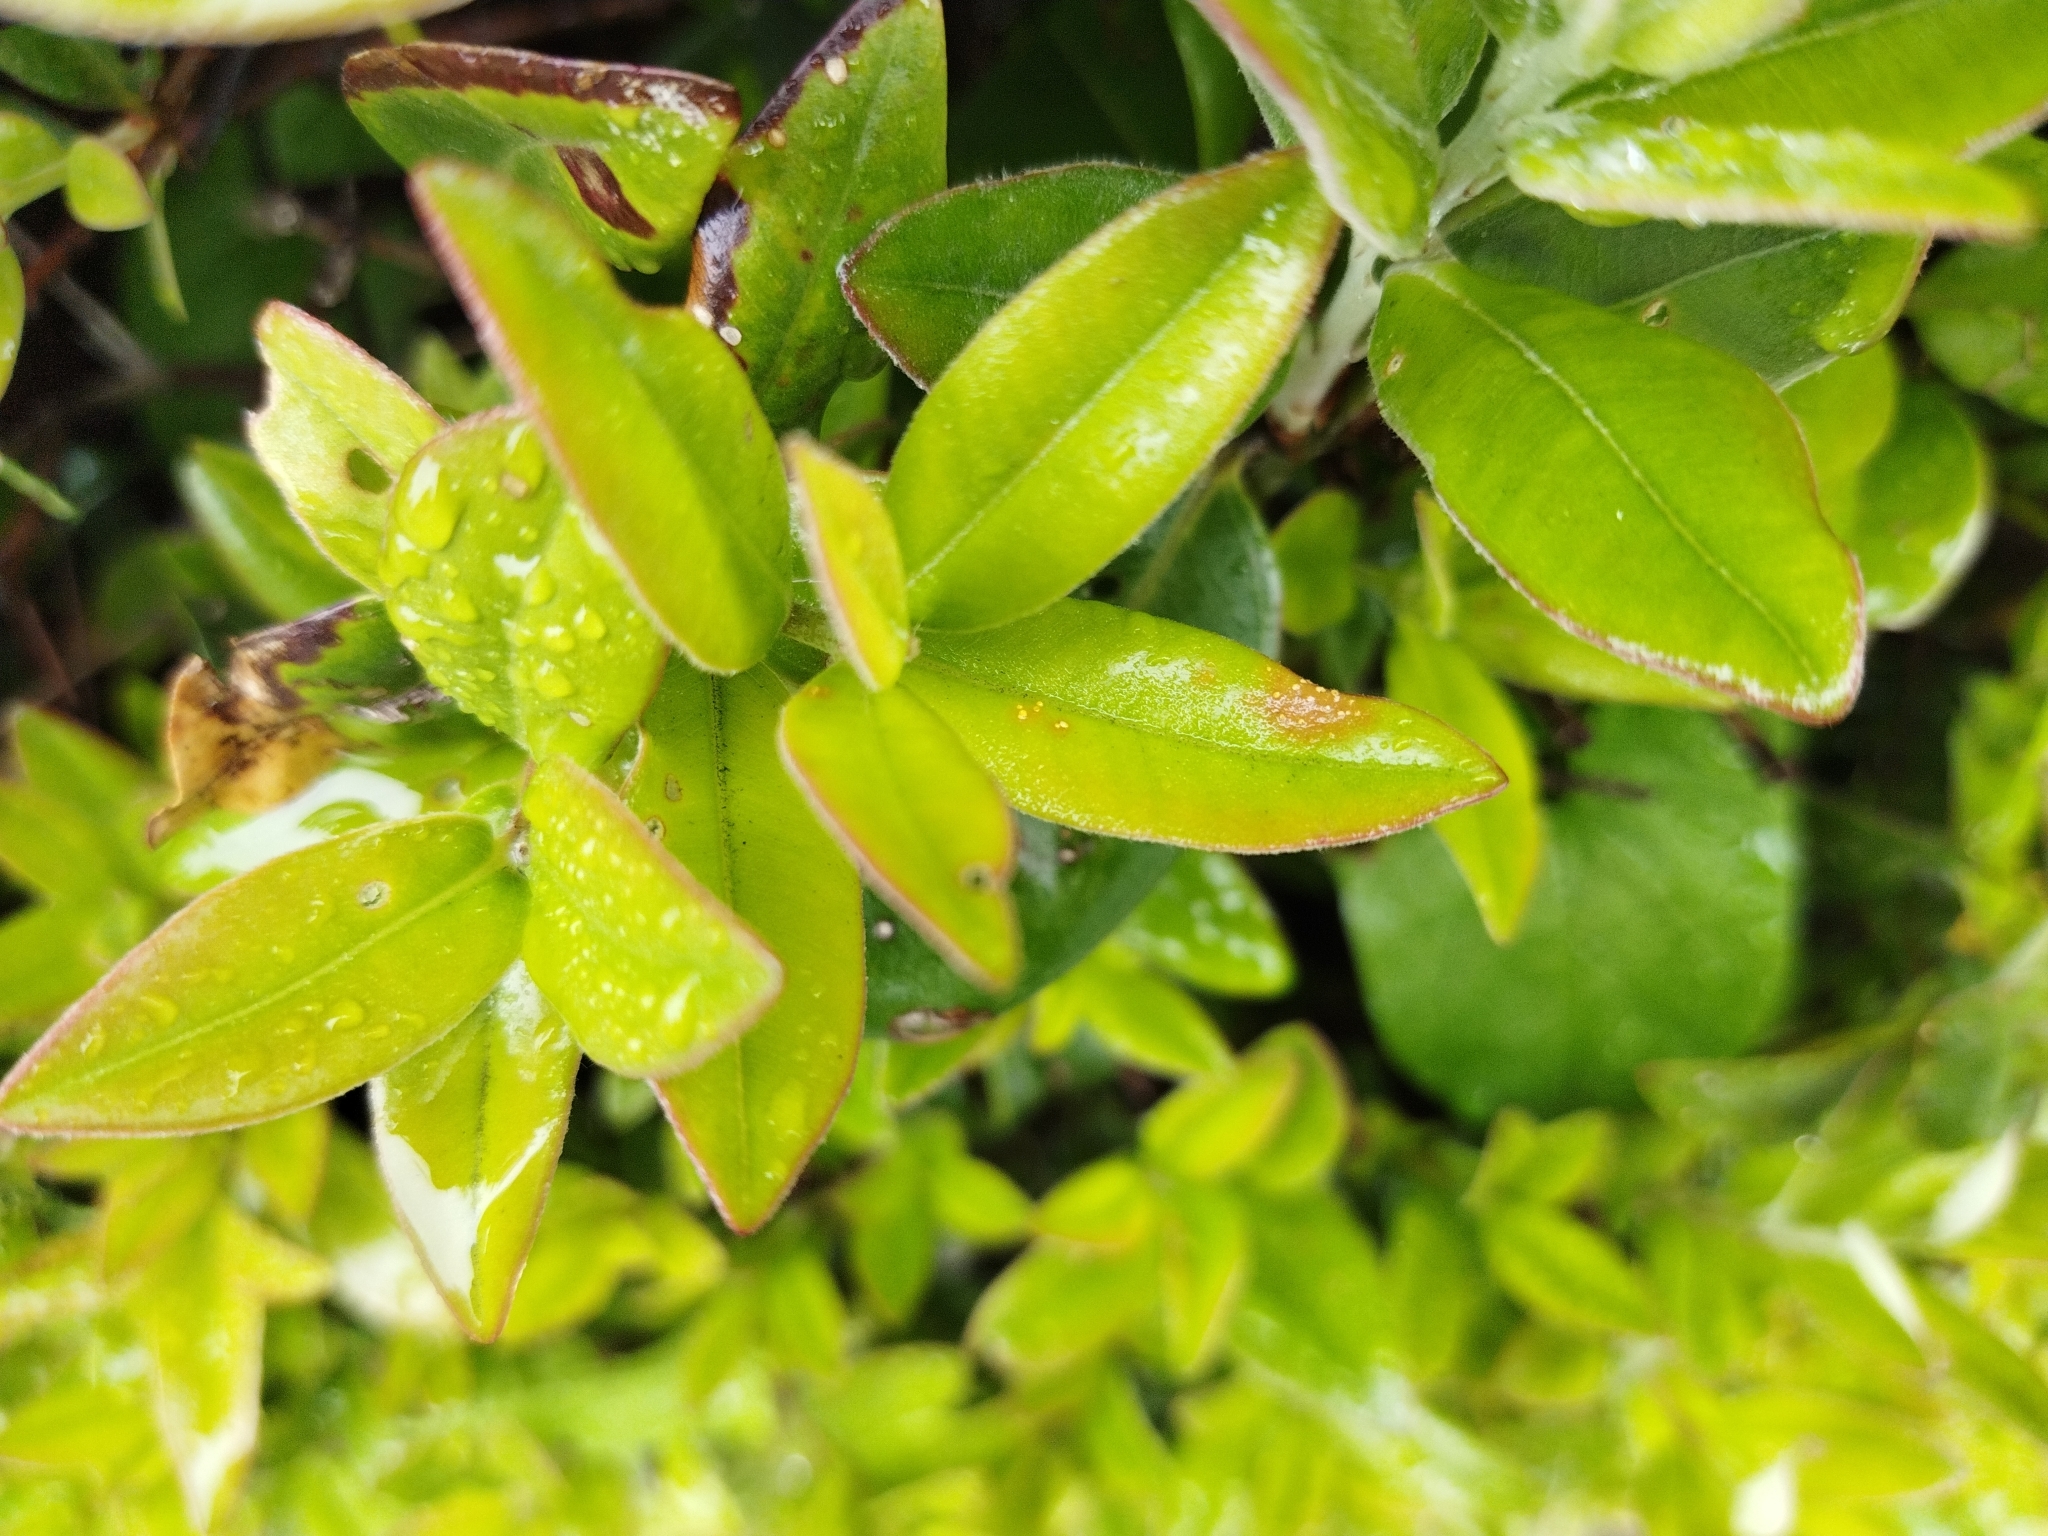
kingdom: Fungi
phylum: Basidiomycota
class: Pucciniomycetes
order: Pucciniales
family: Sphaerophragmiaceae
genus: Austropuccinia
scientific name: Austropuccinia psidii
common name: Myrtle rust
